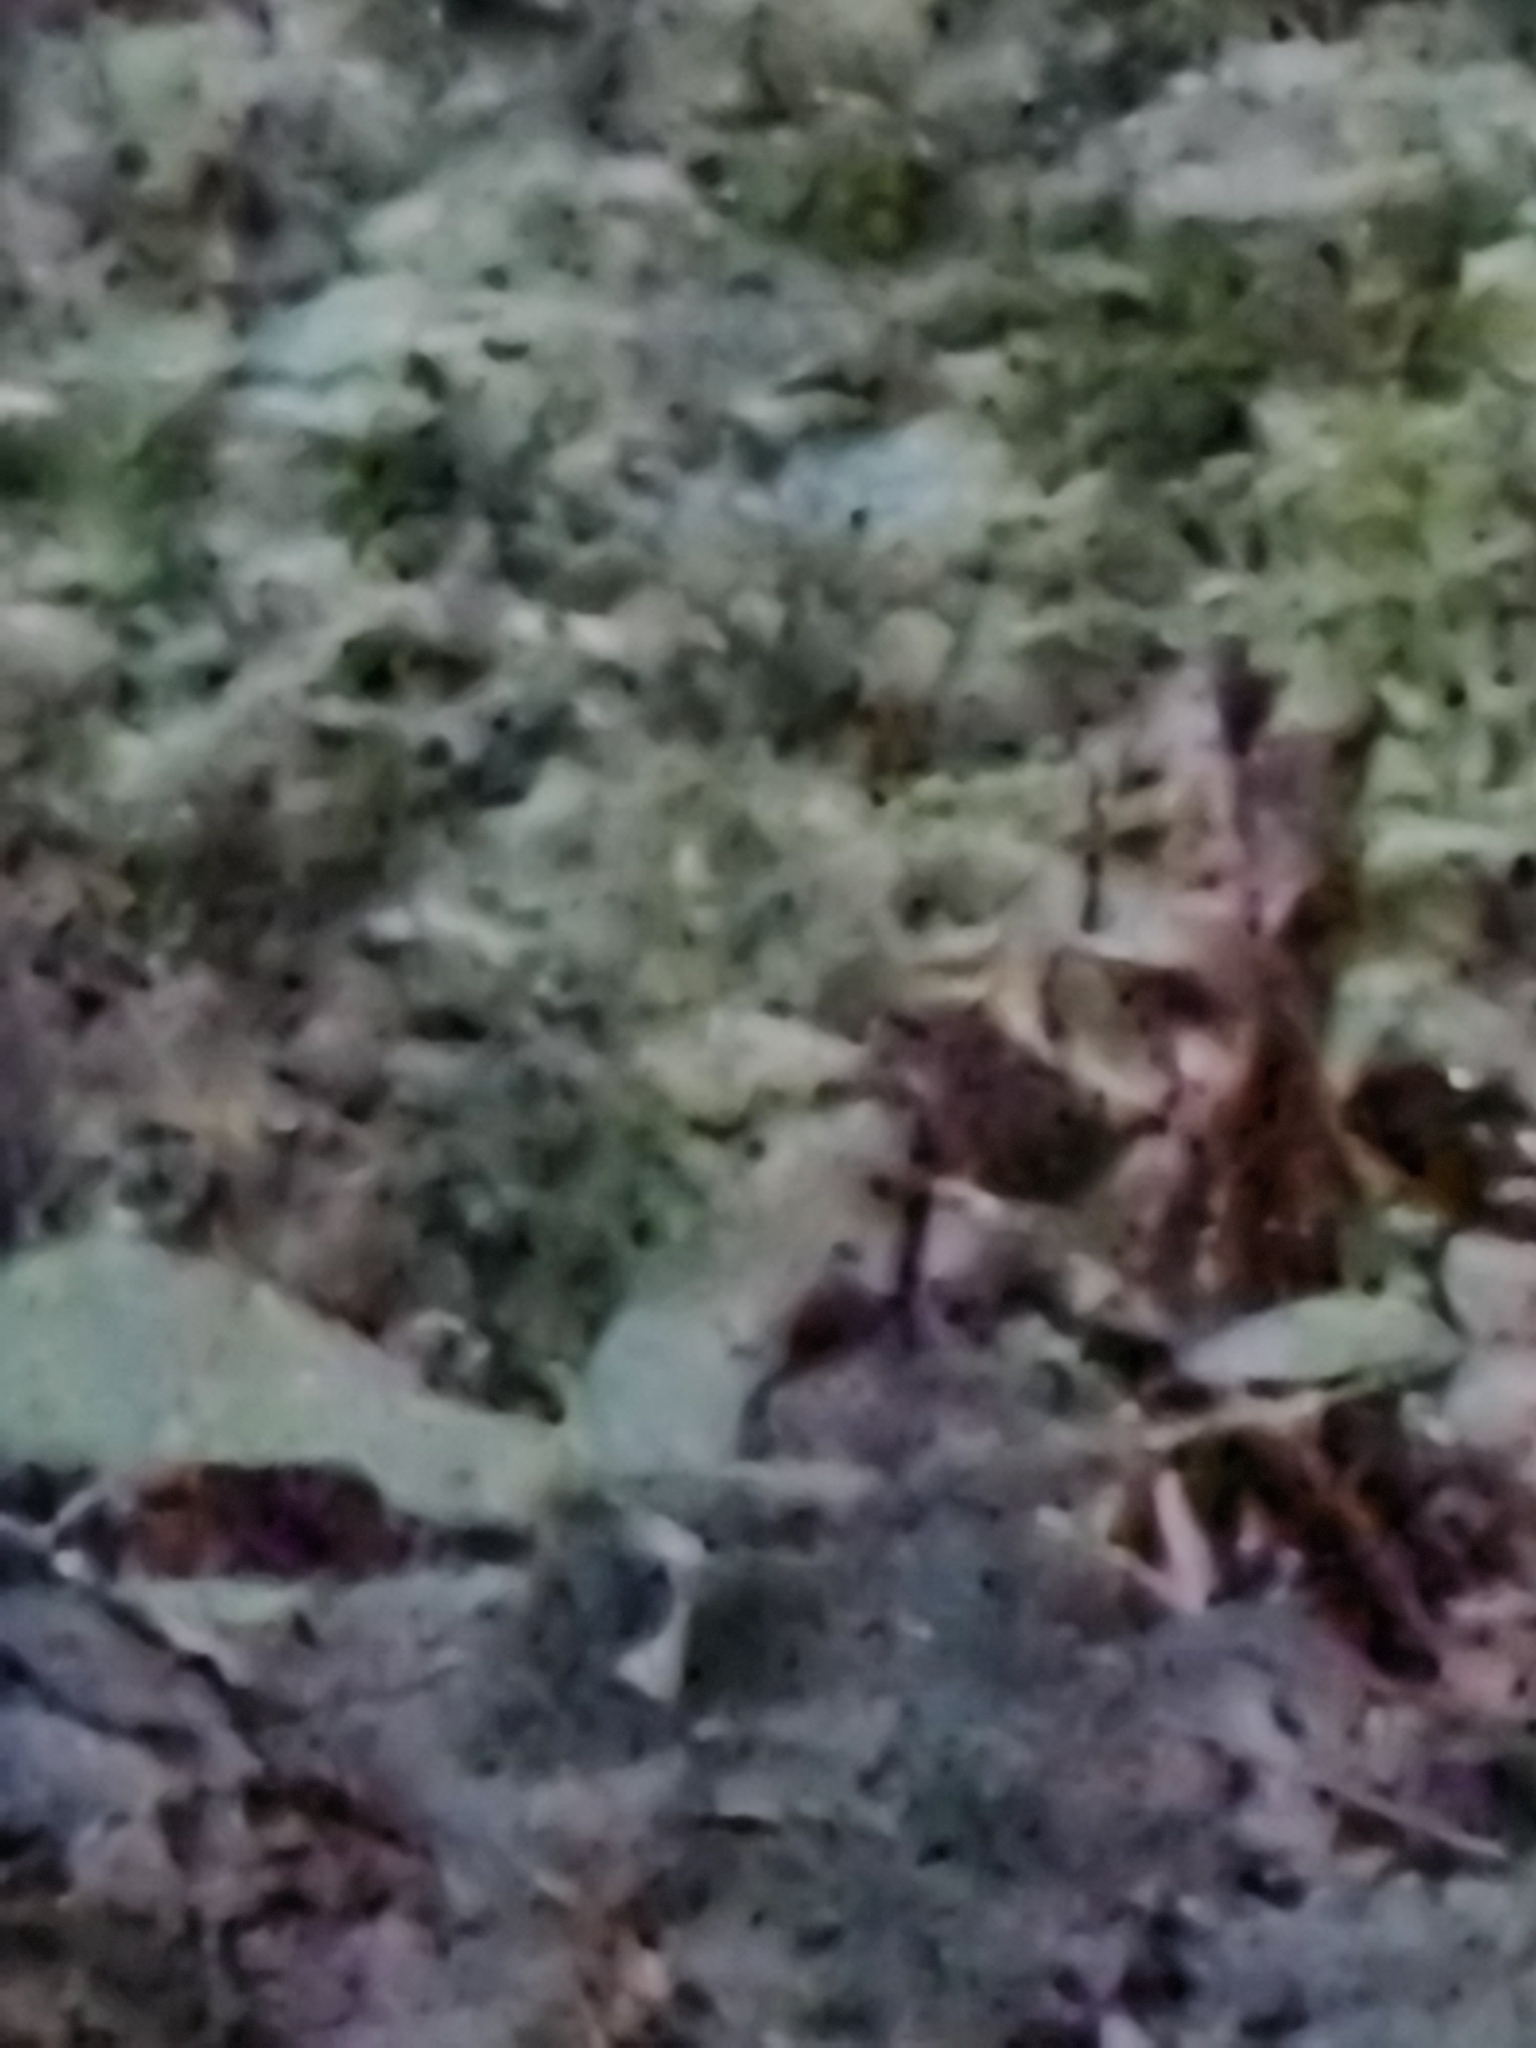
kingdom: Animalia
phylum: Chordata
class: Aves
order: Passeriformes
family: Troglodytidae
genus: Troglodytes
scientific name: Troglodytes troglodytes
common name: Eurasian wren
